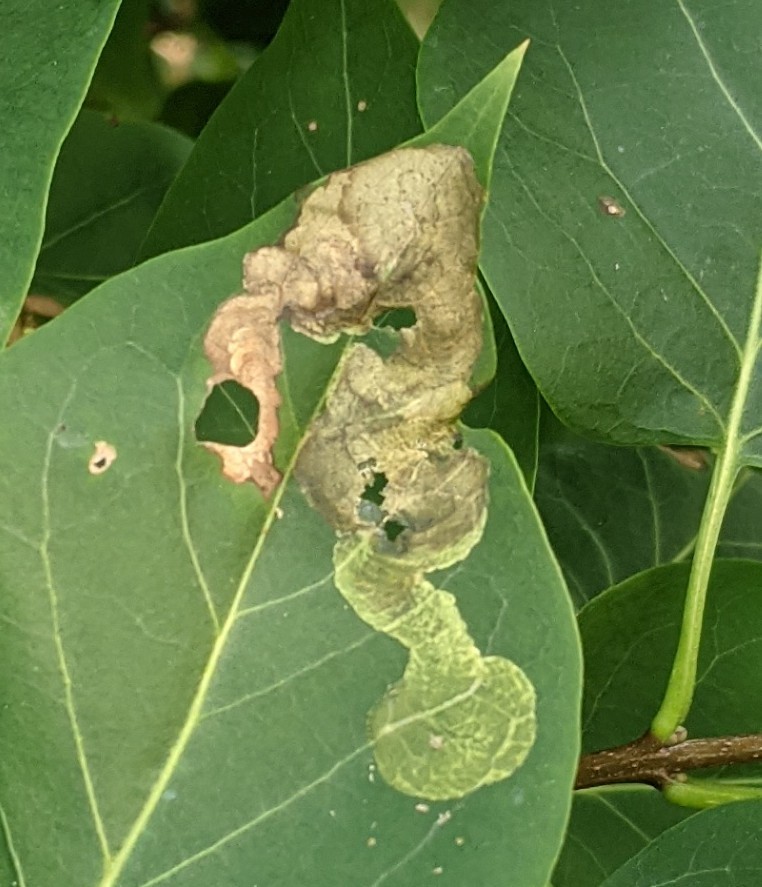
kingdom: Animalia
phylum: Arthropoda
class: Insecta
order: Lepidoptera
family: Gracillariidae
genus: Gracillaria
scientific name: Gracillaria syringella
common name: Common slender
